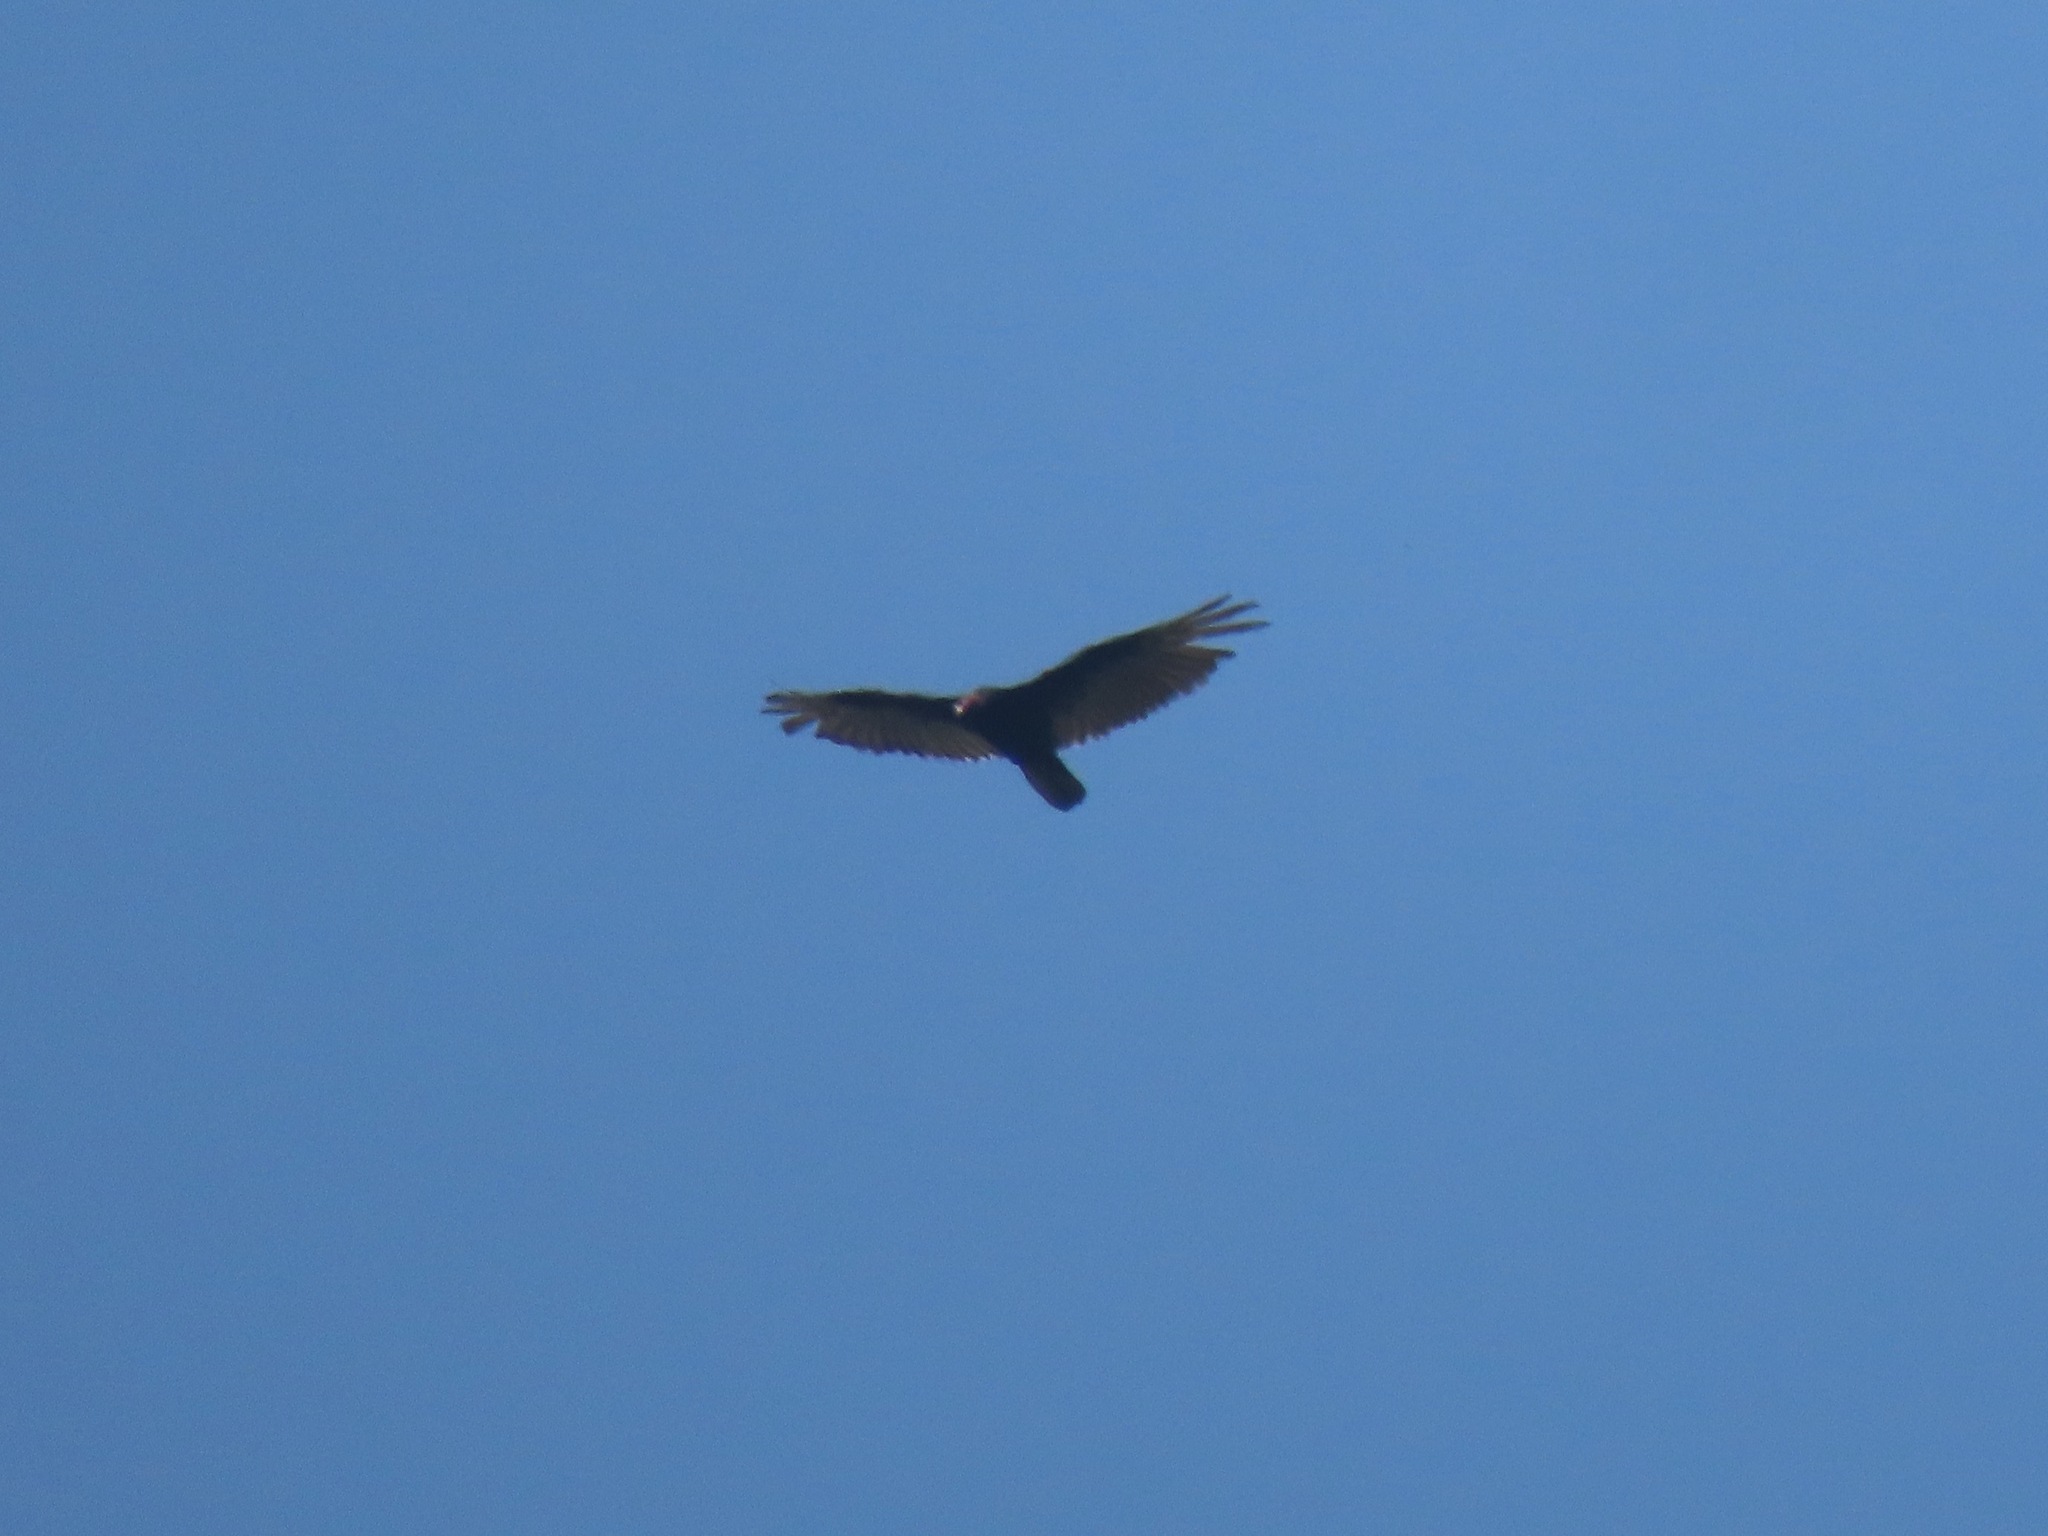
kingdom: Animalia
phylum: Chordata
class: Aves
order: Accipitriformes
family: Cathartidae
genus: Cathartes
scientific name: Cathartes aura
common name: Turkey vulture
